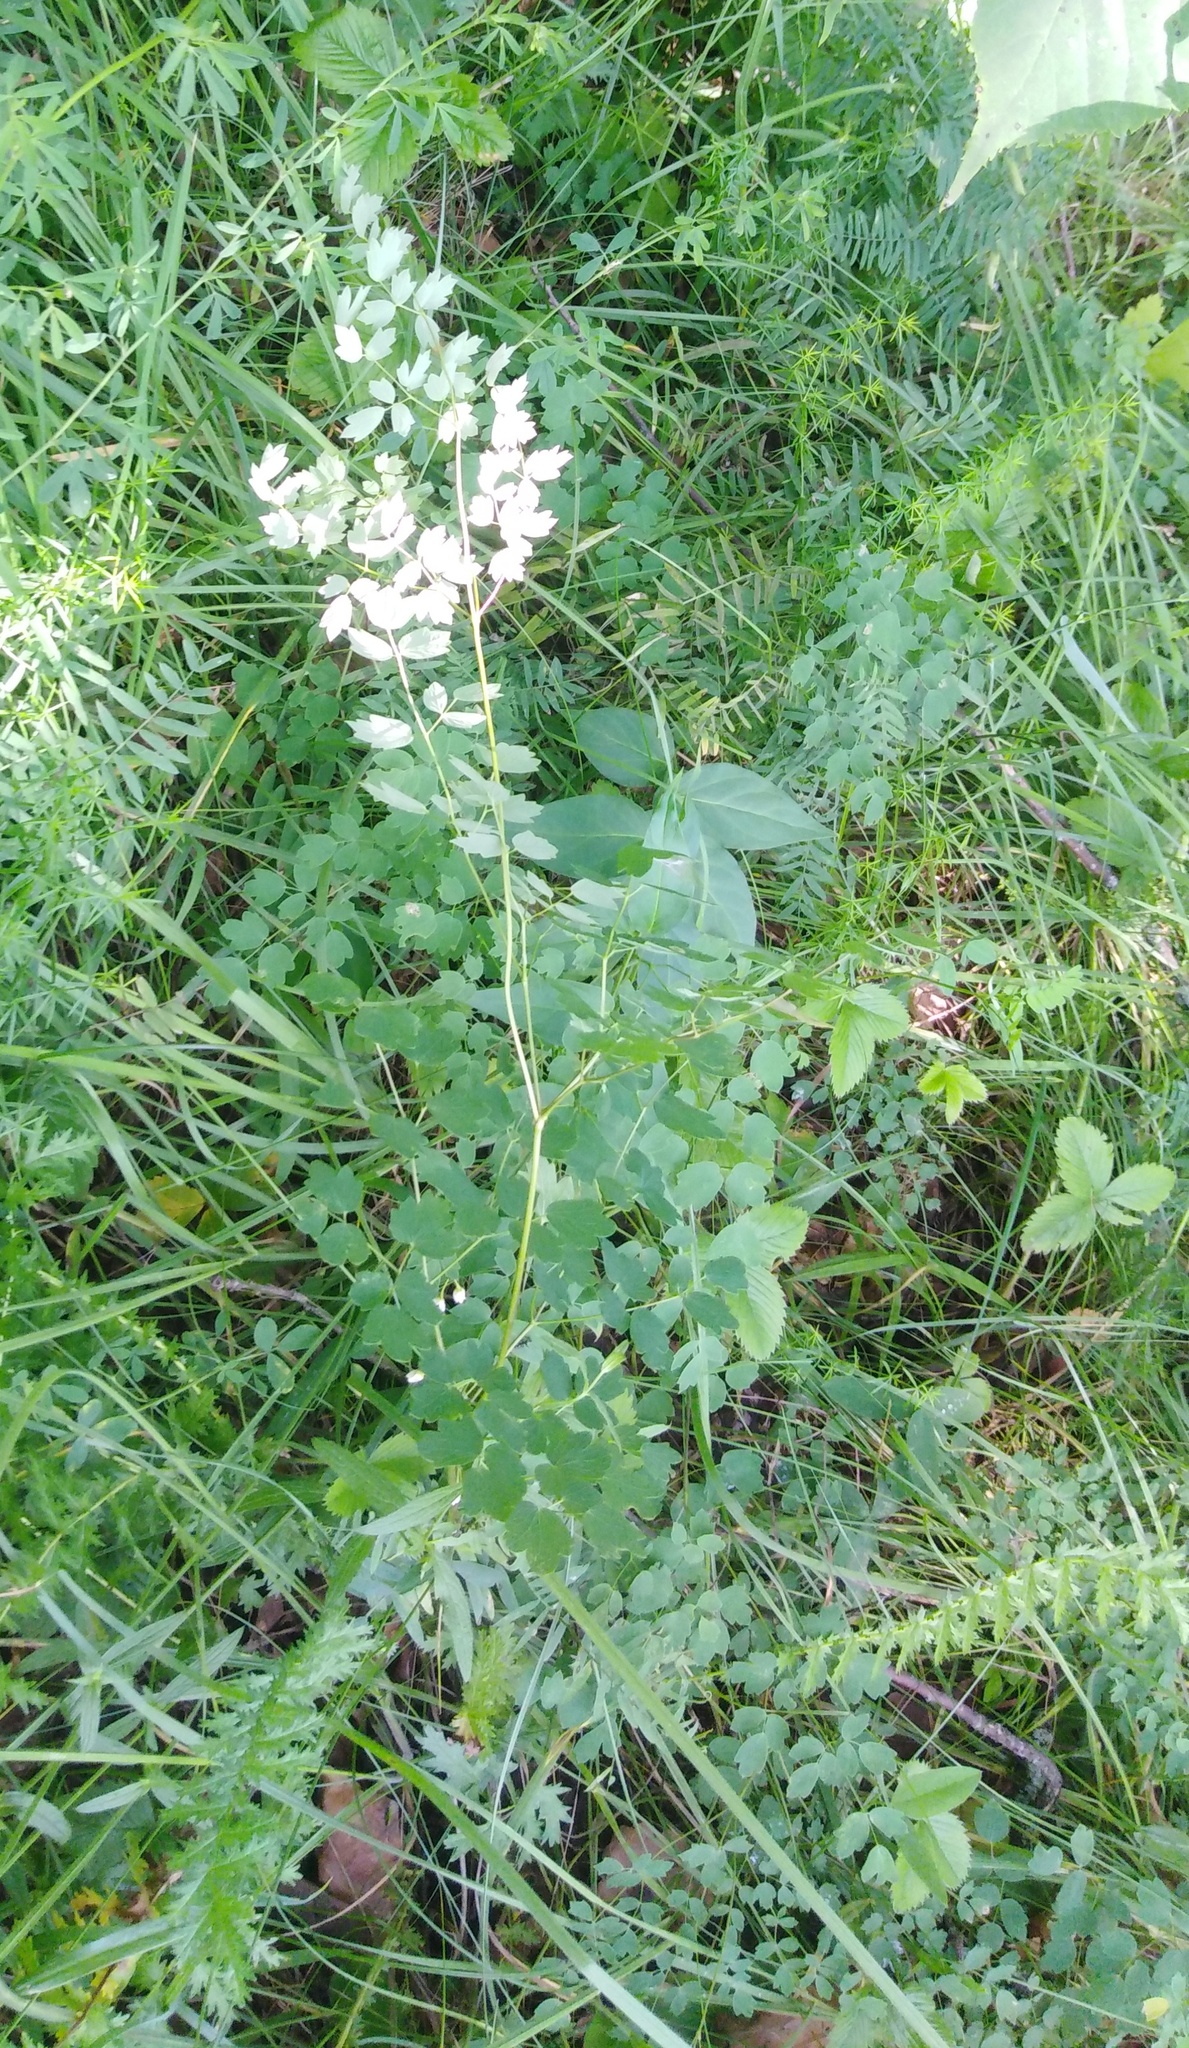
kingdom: Plantae
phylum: Tracheophyta
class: Magnoliopsida
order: Ranunculales
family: Ranunculaceae
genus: Thalictrum
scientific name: Thalictrum minus
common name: Lesser meadow-rue
